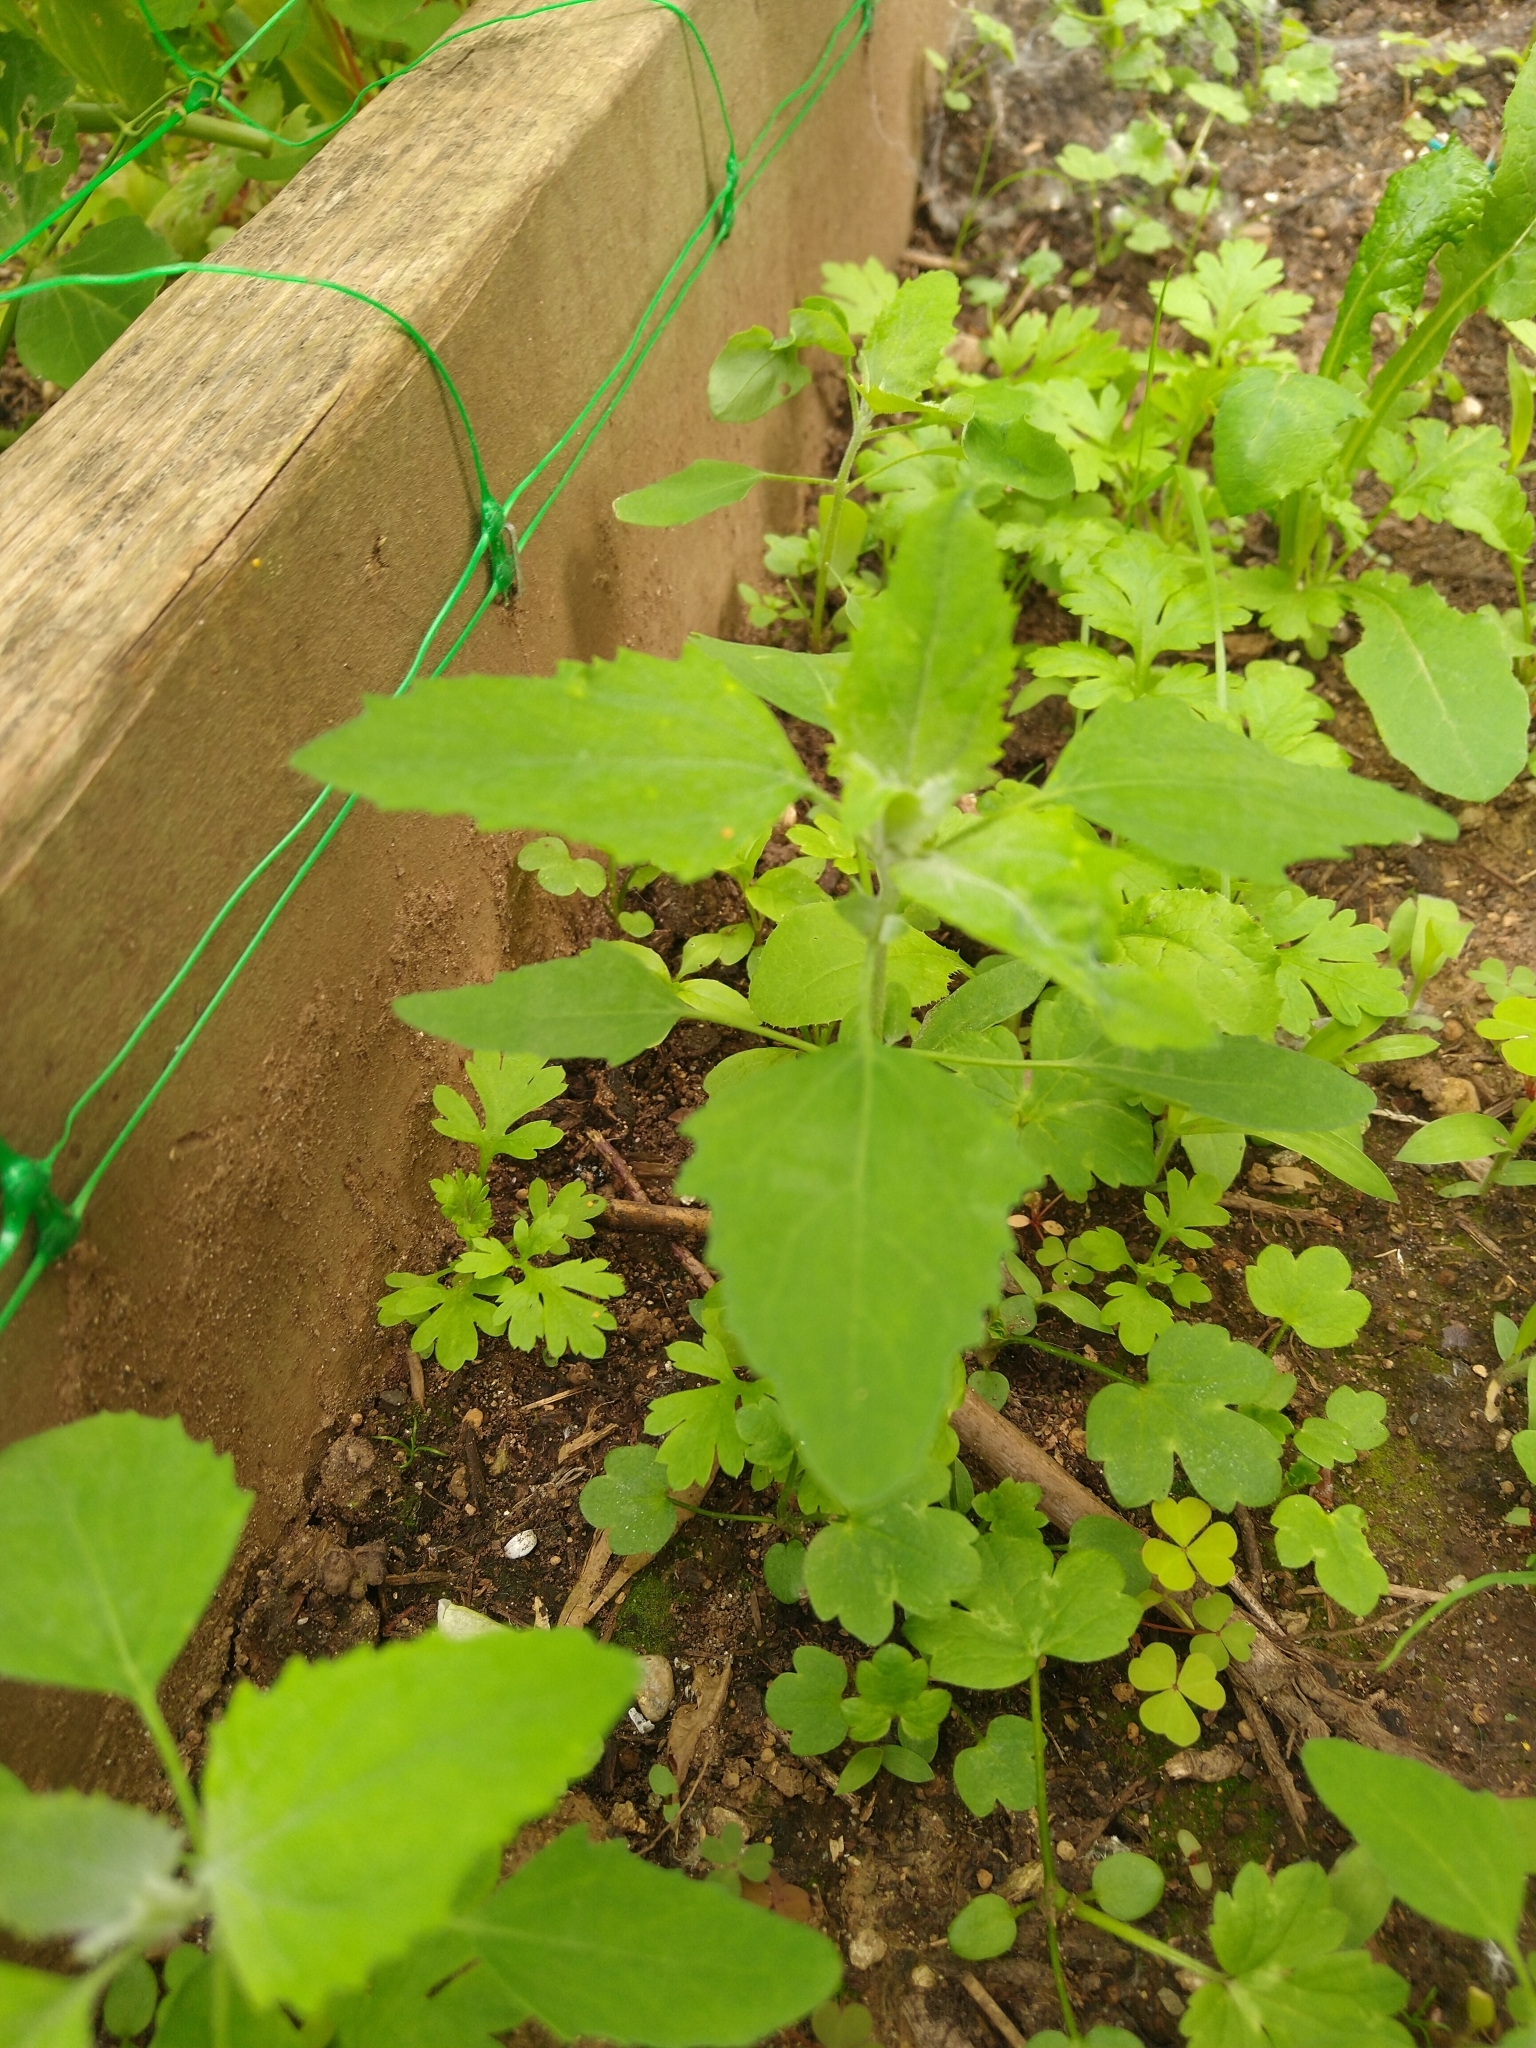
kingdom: Plantae
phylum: Tracheophyta
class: Magnoliopsida
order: Caryophyllales
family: Amaranthaceae
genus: Chenopodium
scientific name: Chenopodium album
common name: Fat-hen
